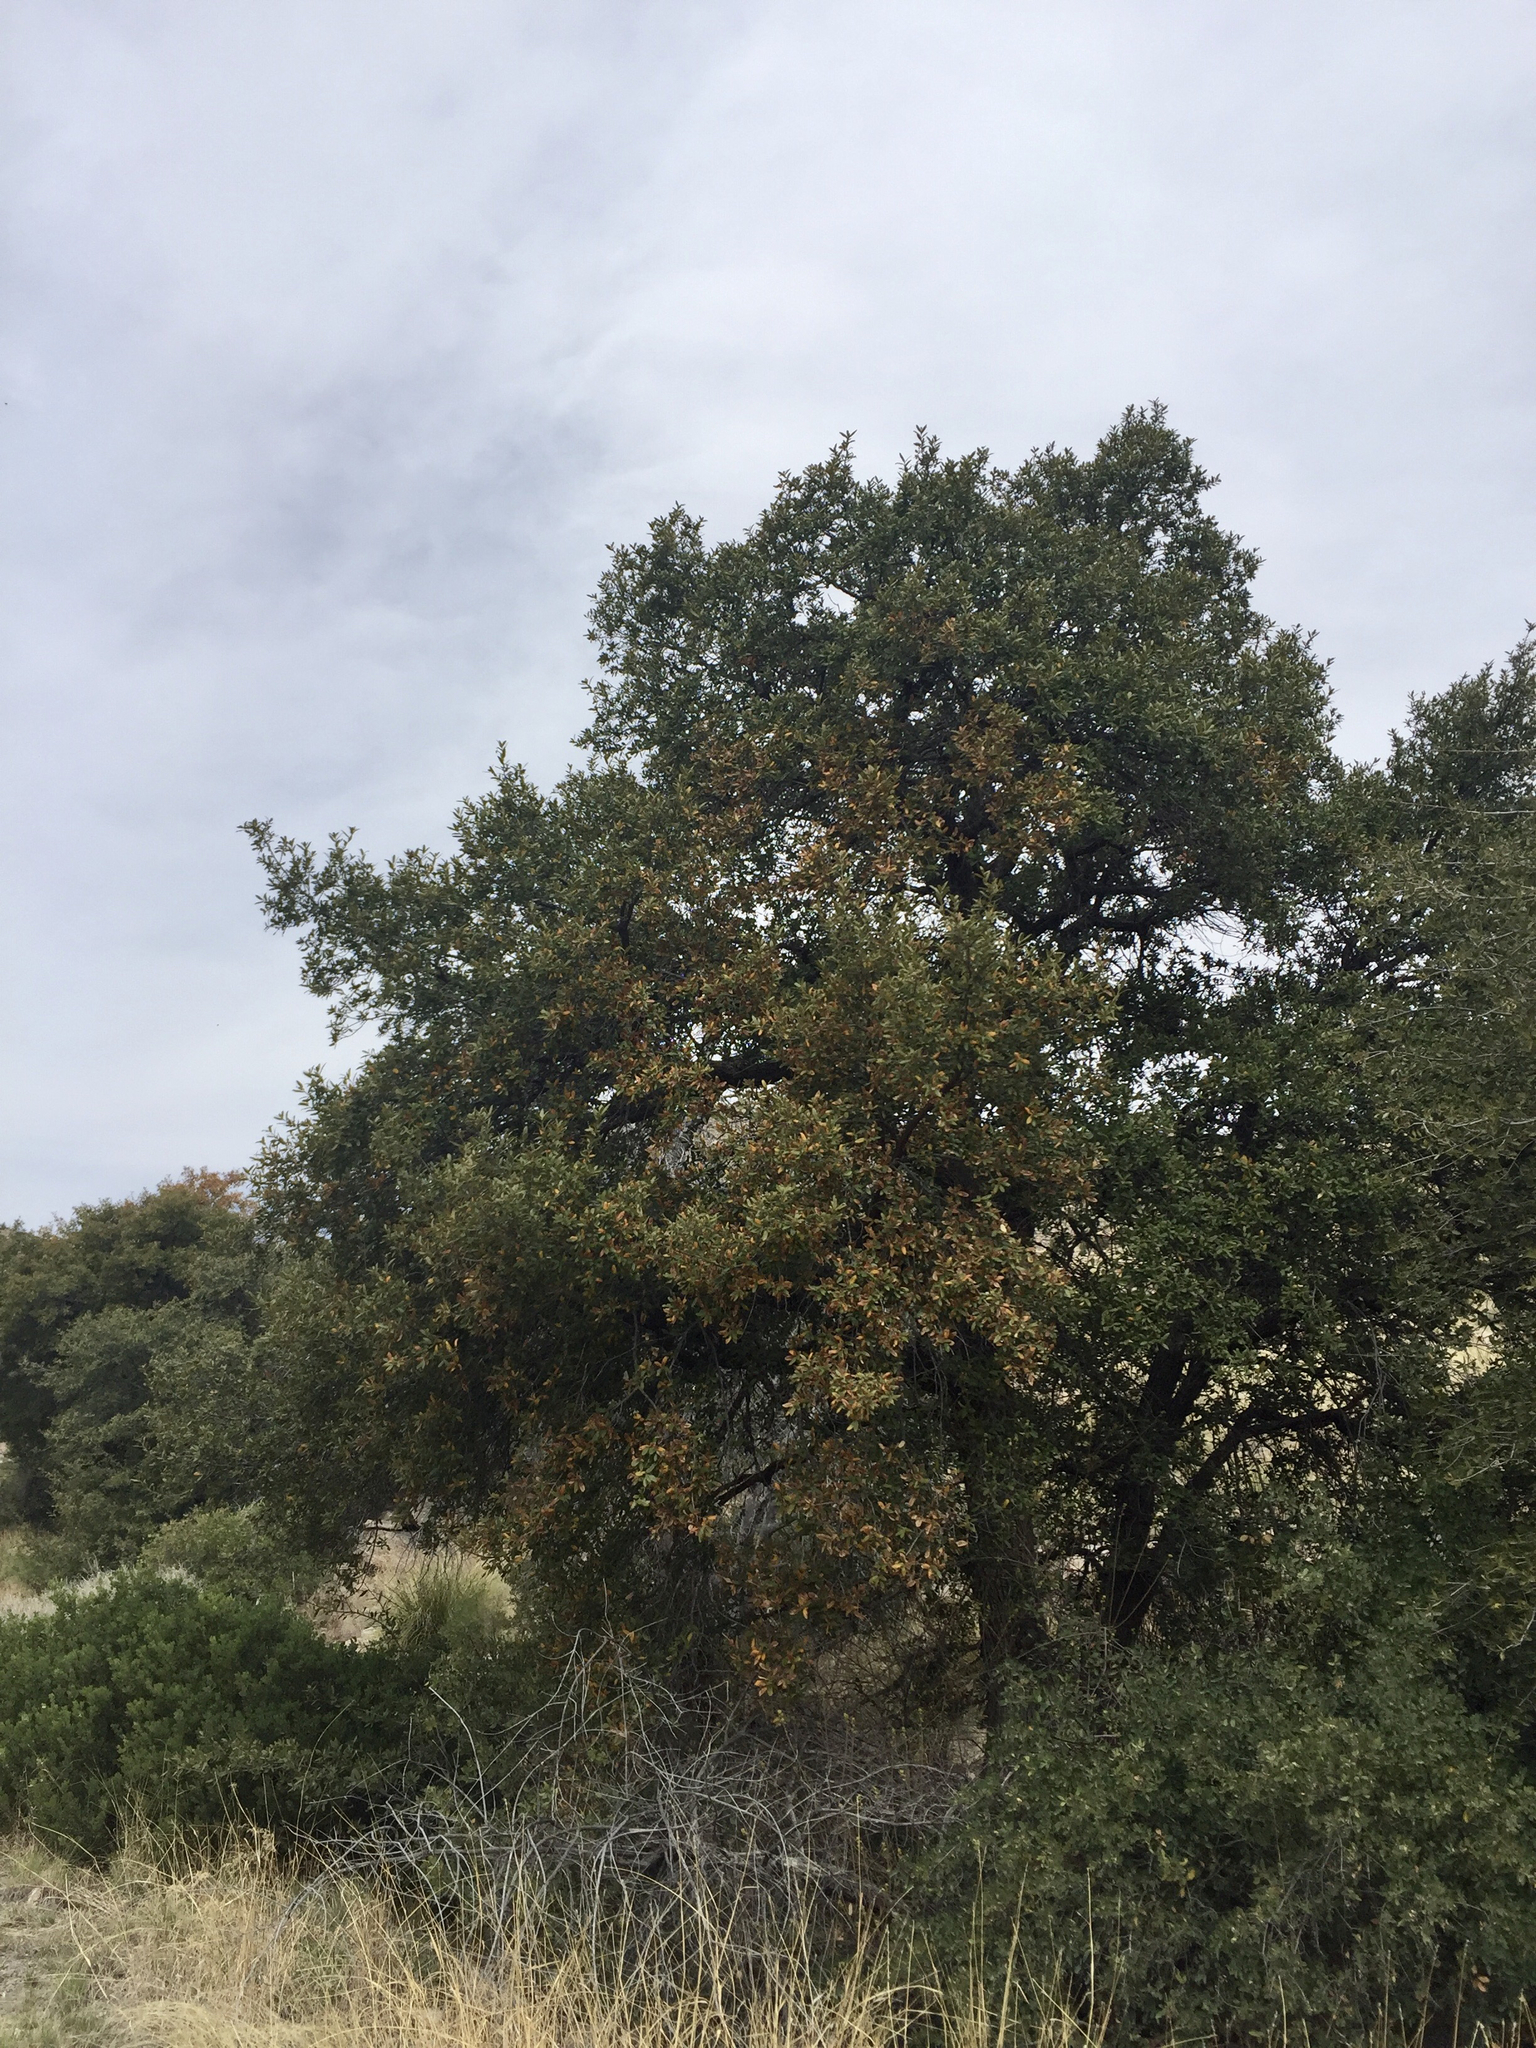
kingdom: Plantae
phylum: Tracheophyta
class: Magnoliopsida
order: Fagales
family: Fagaceae
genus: Quercus
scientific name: Quercus arizonica
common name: Arizona white oak
